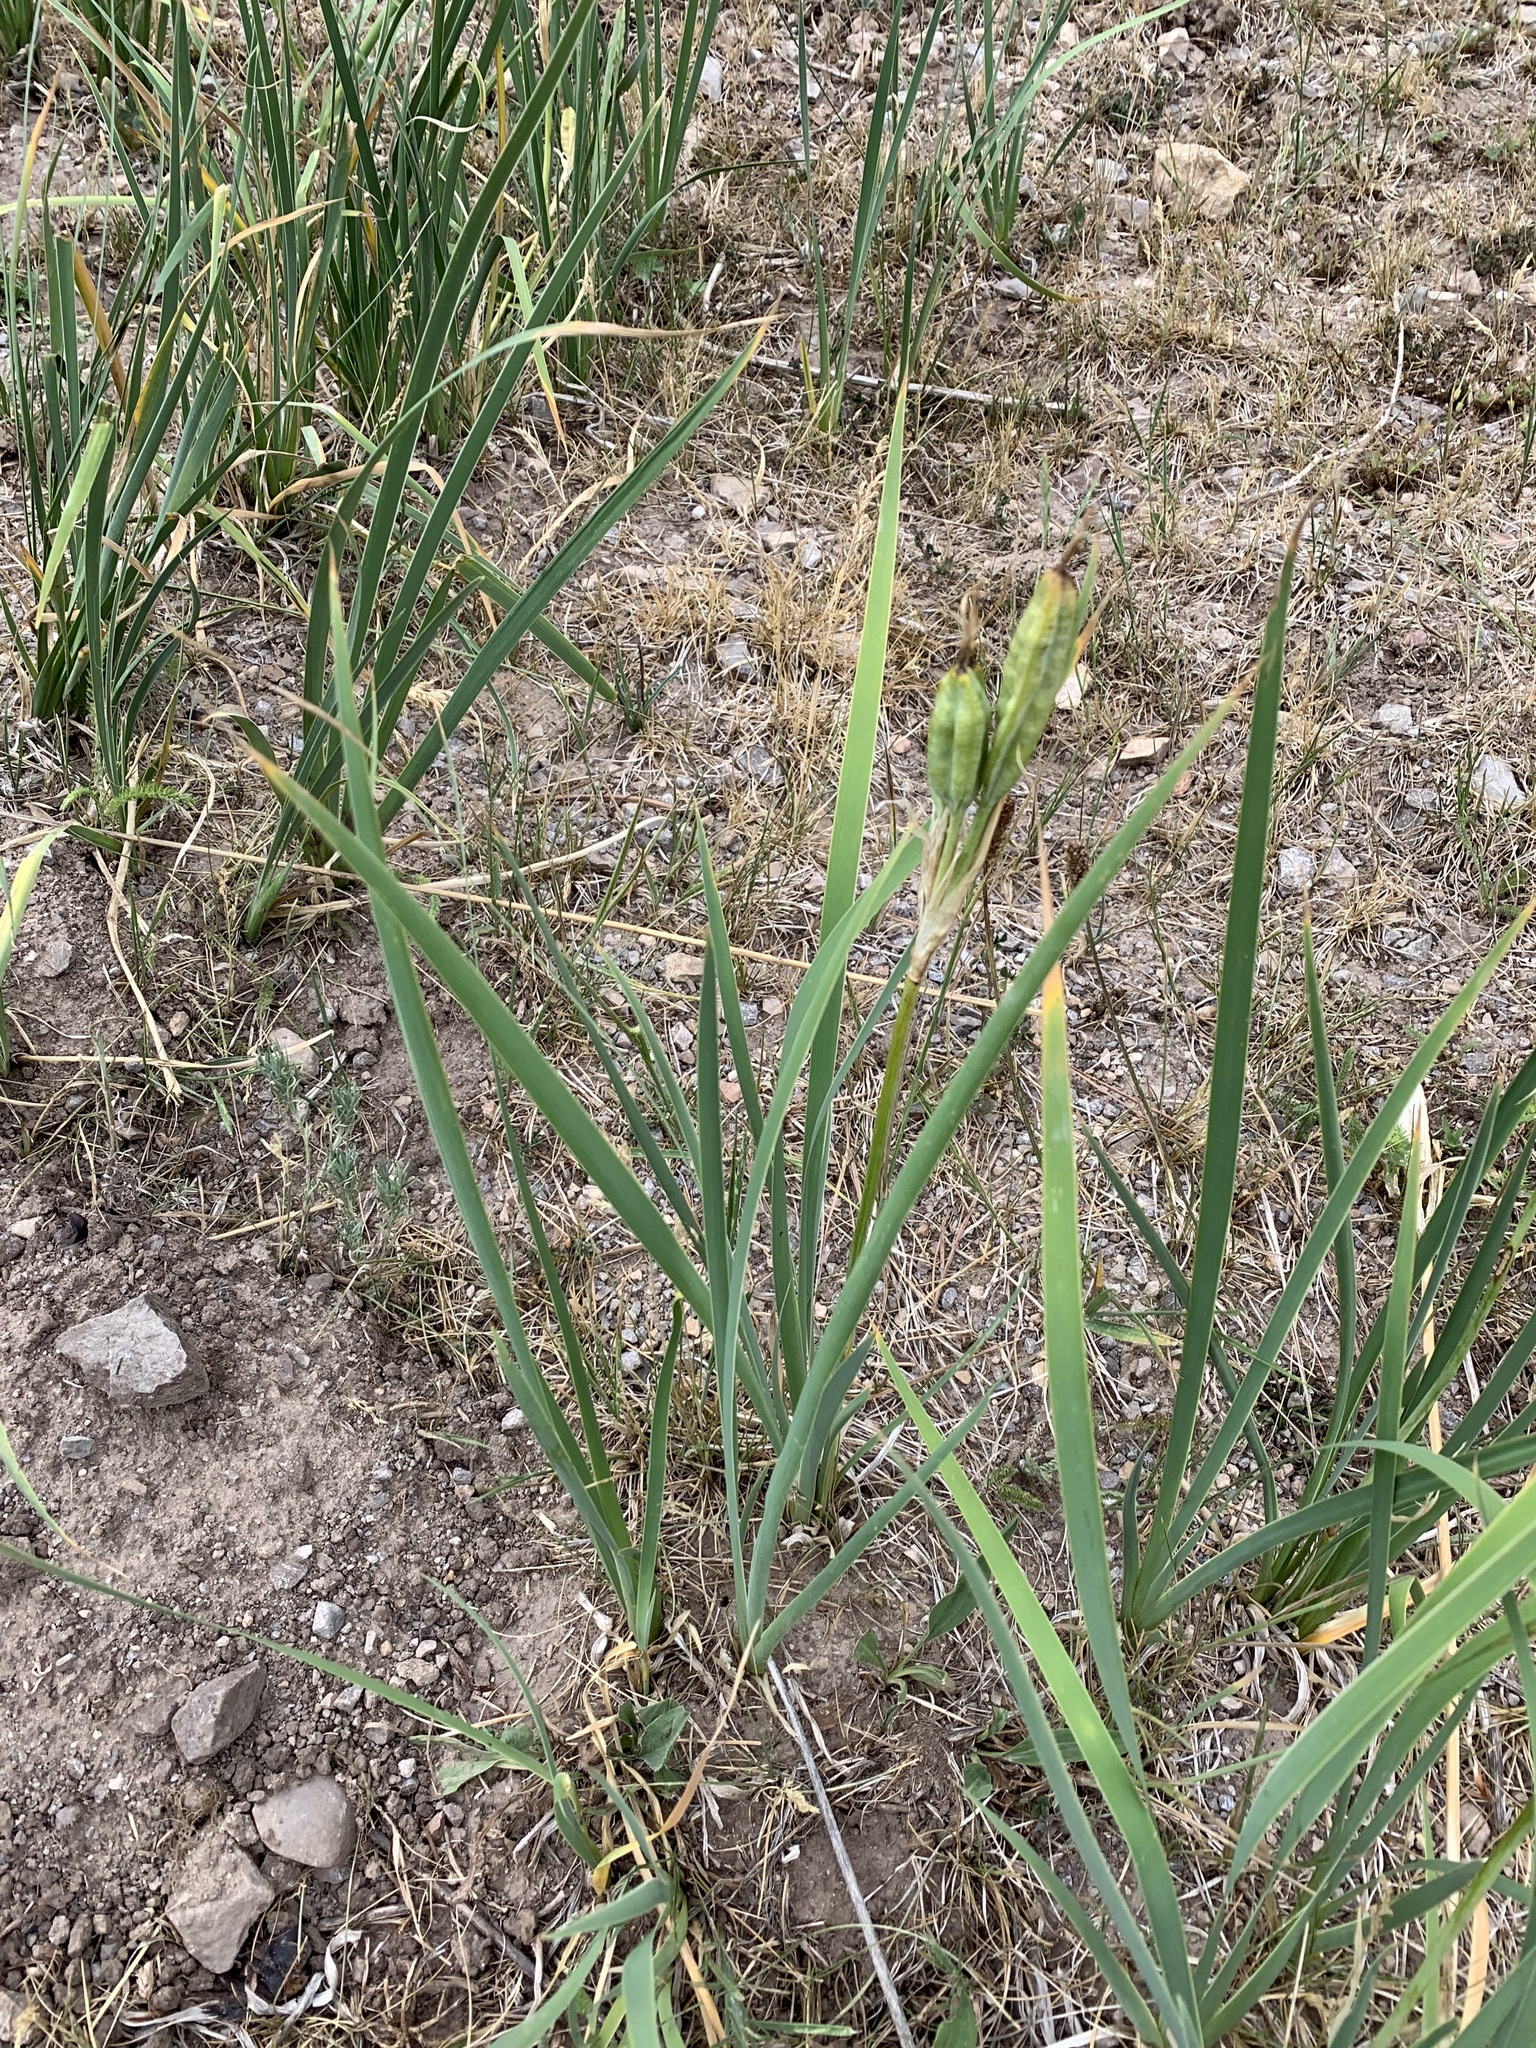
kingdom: Plantae
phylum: Tracheophyta
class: Liliopsida
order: Asparagales
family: Iridaceae
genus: Iris
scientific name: Iris missouriensis
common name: Rocky mountain iris
